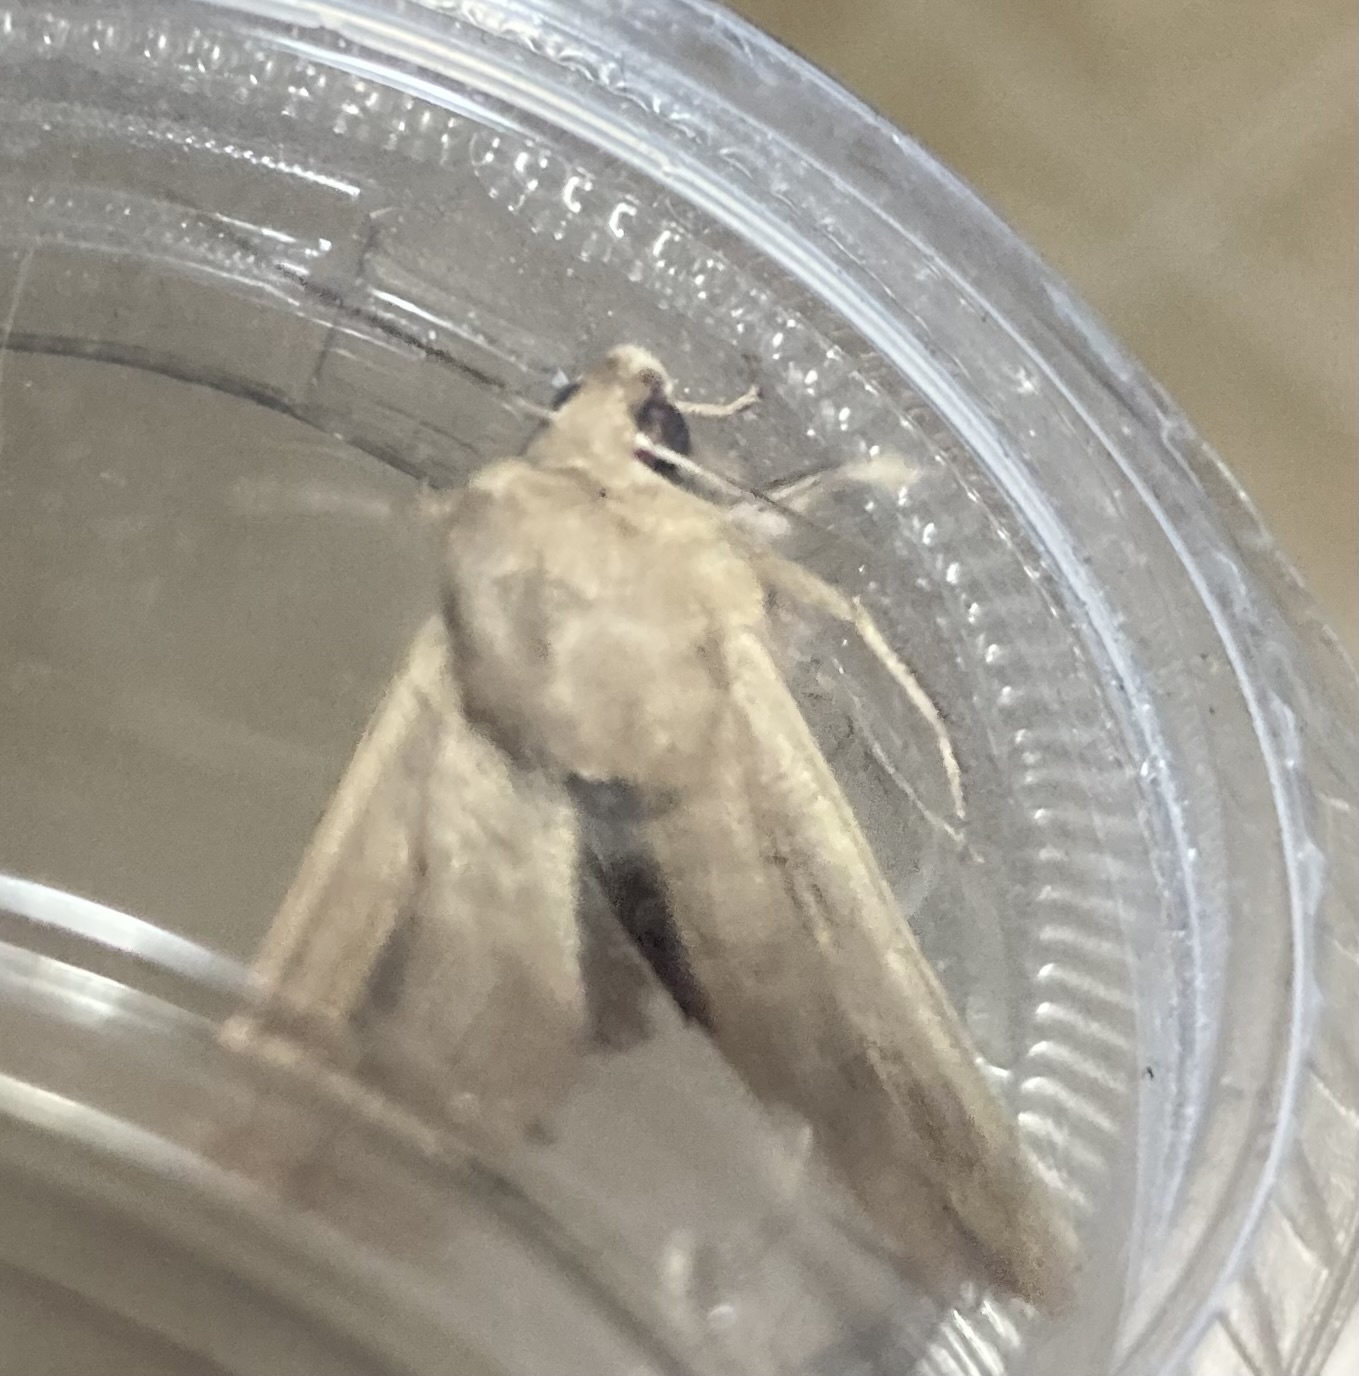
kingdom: Animalia
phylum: Arthropoda
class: Insecta
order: Lepidoptera
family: Noctuidae
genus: Mythimna
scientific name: Mythimna unipuncta
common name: White-speck
